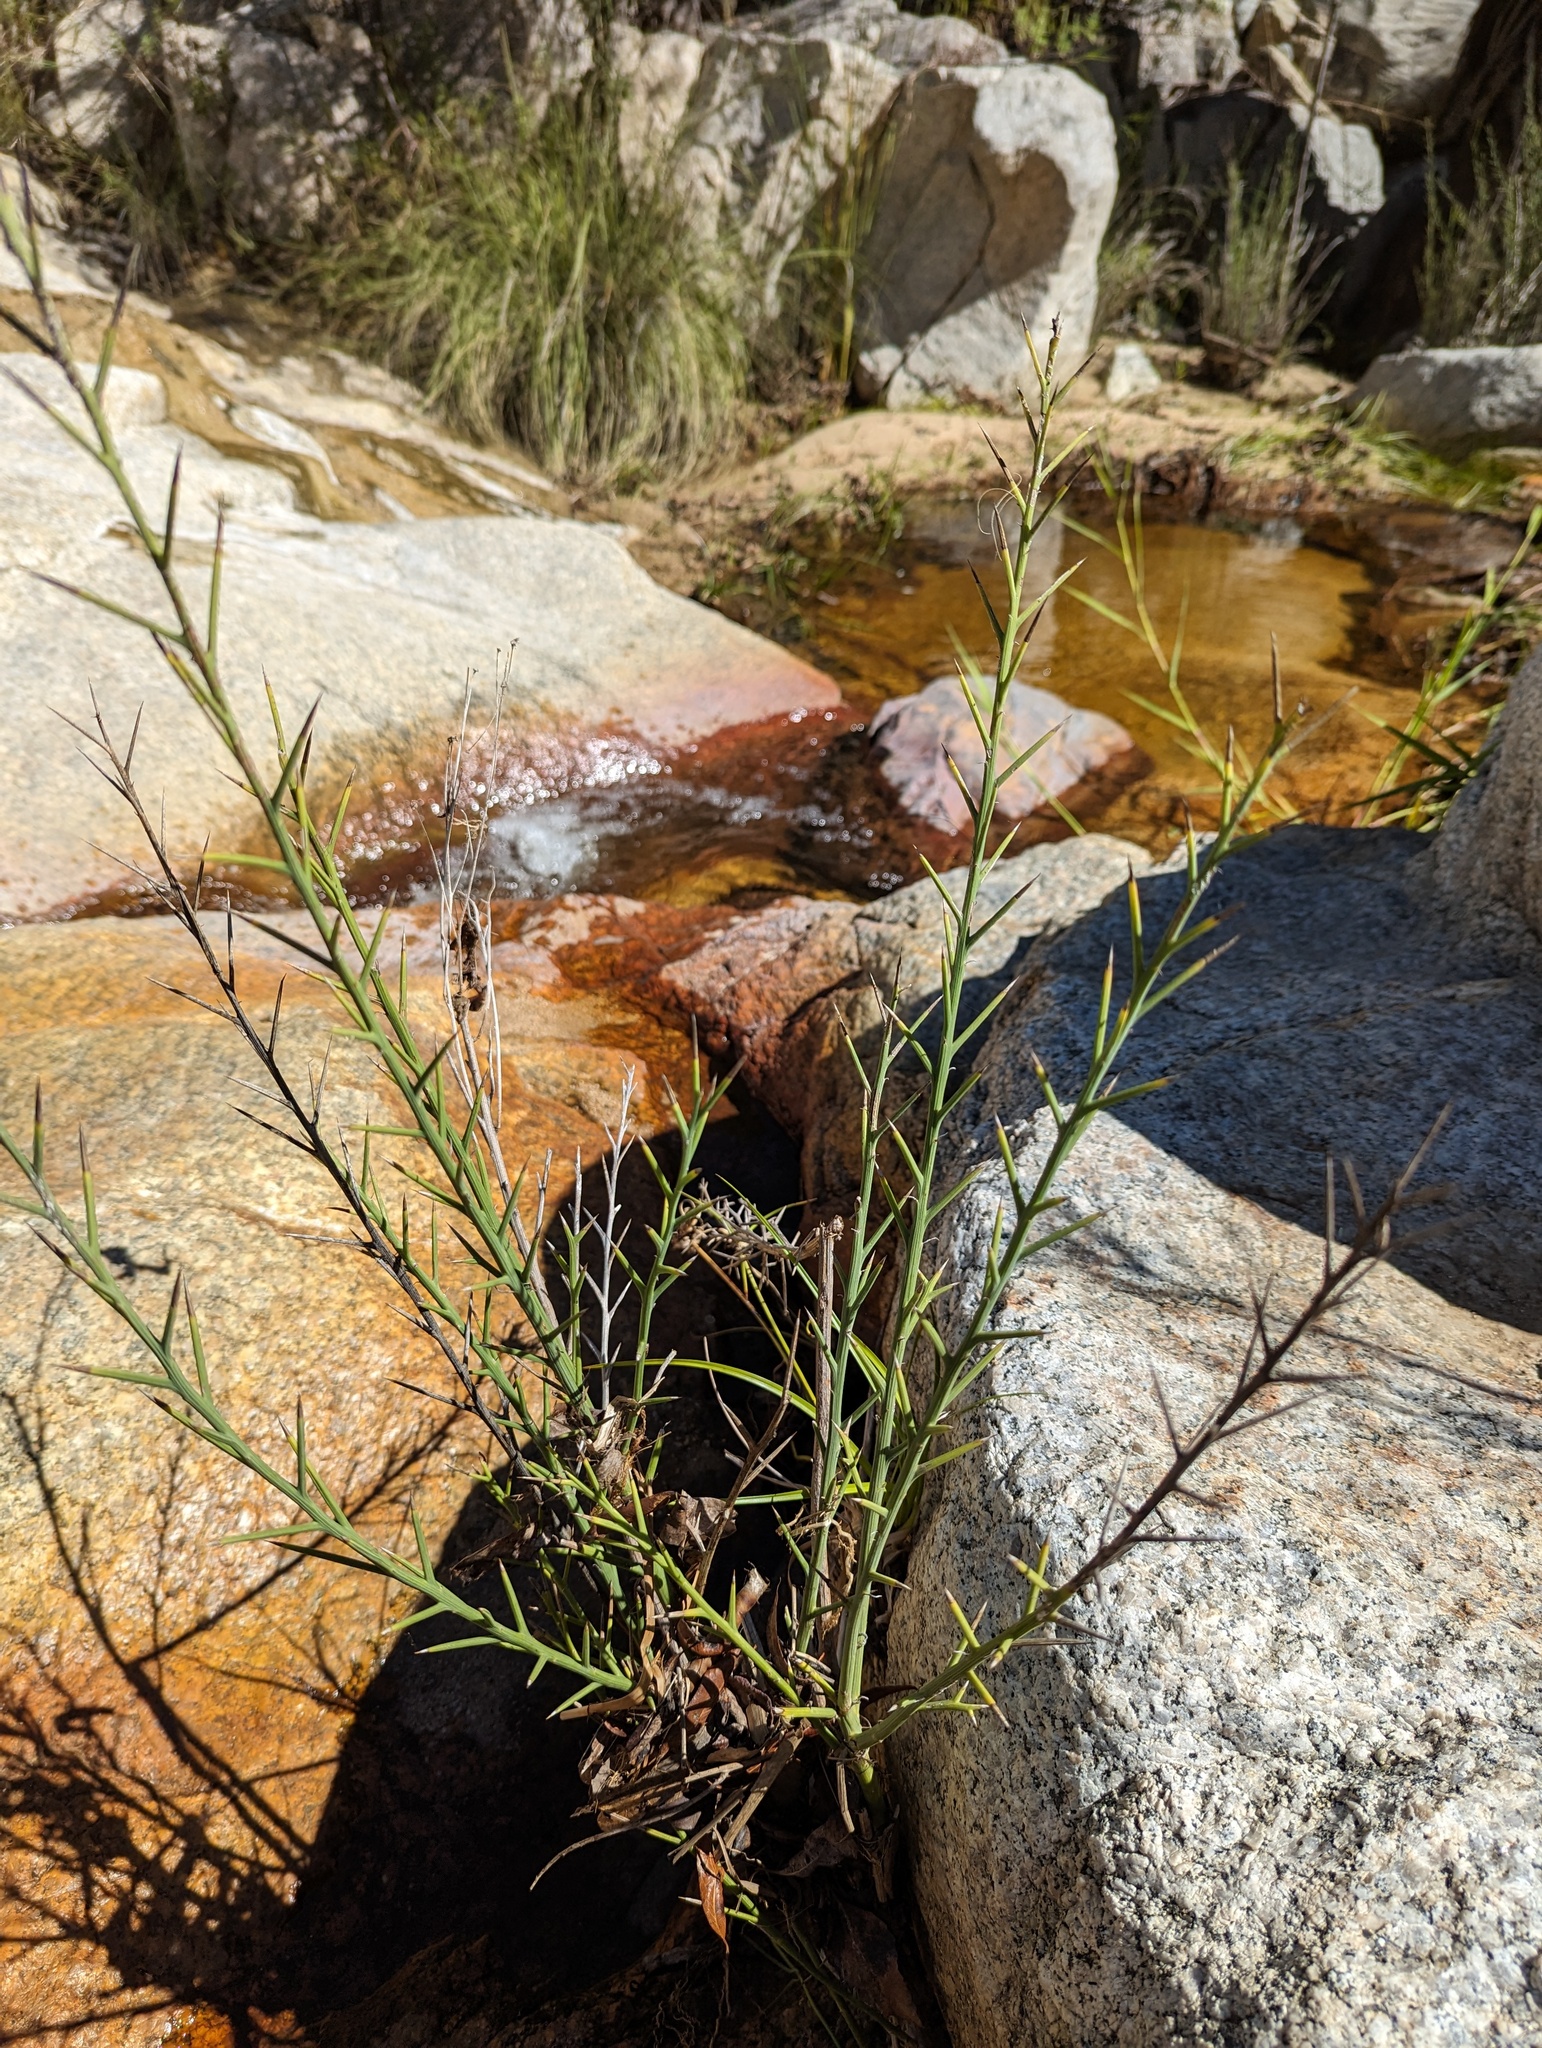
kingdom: Plantae
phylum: Tracheophyta
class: Magnoliopsida
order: Asterales
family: Asteraceae
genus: Chloracantha
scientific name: Chloracantha spinosissima
